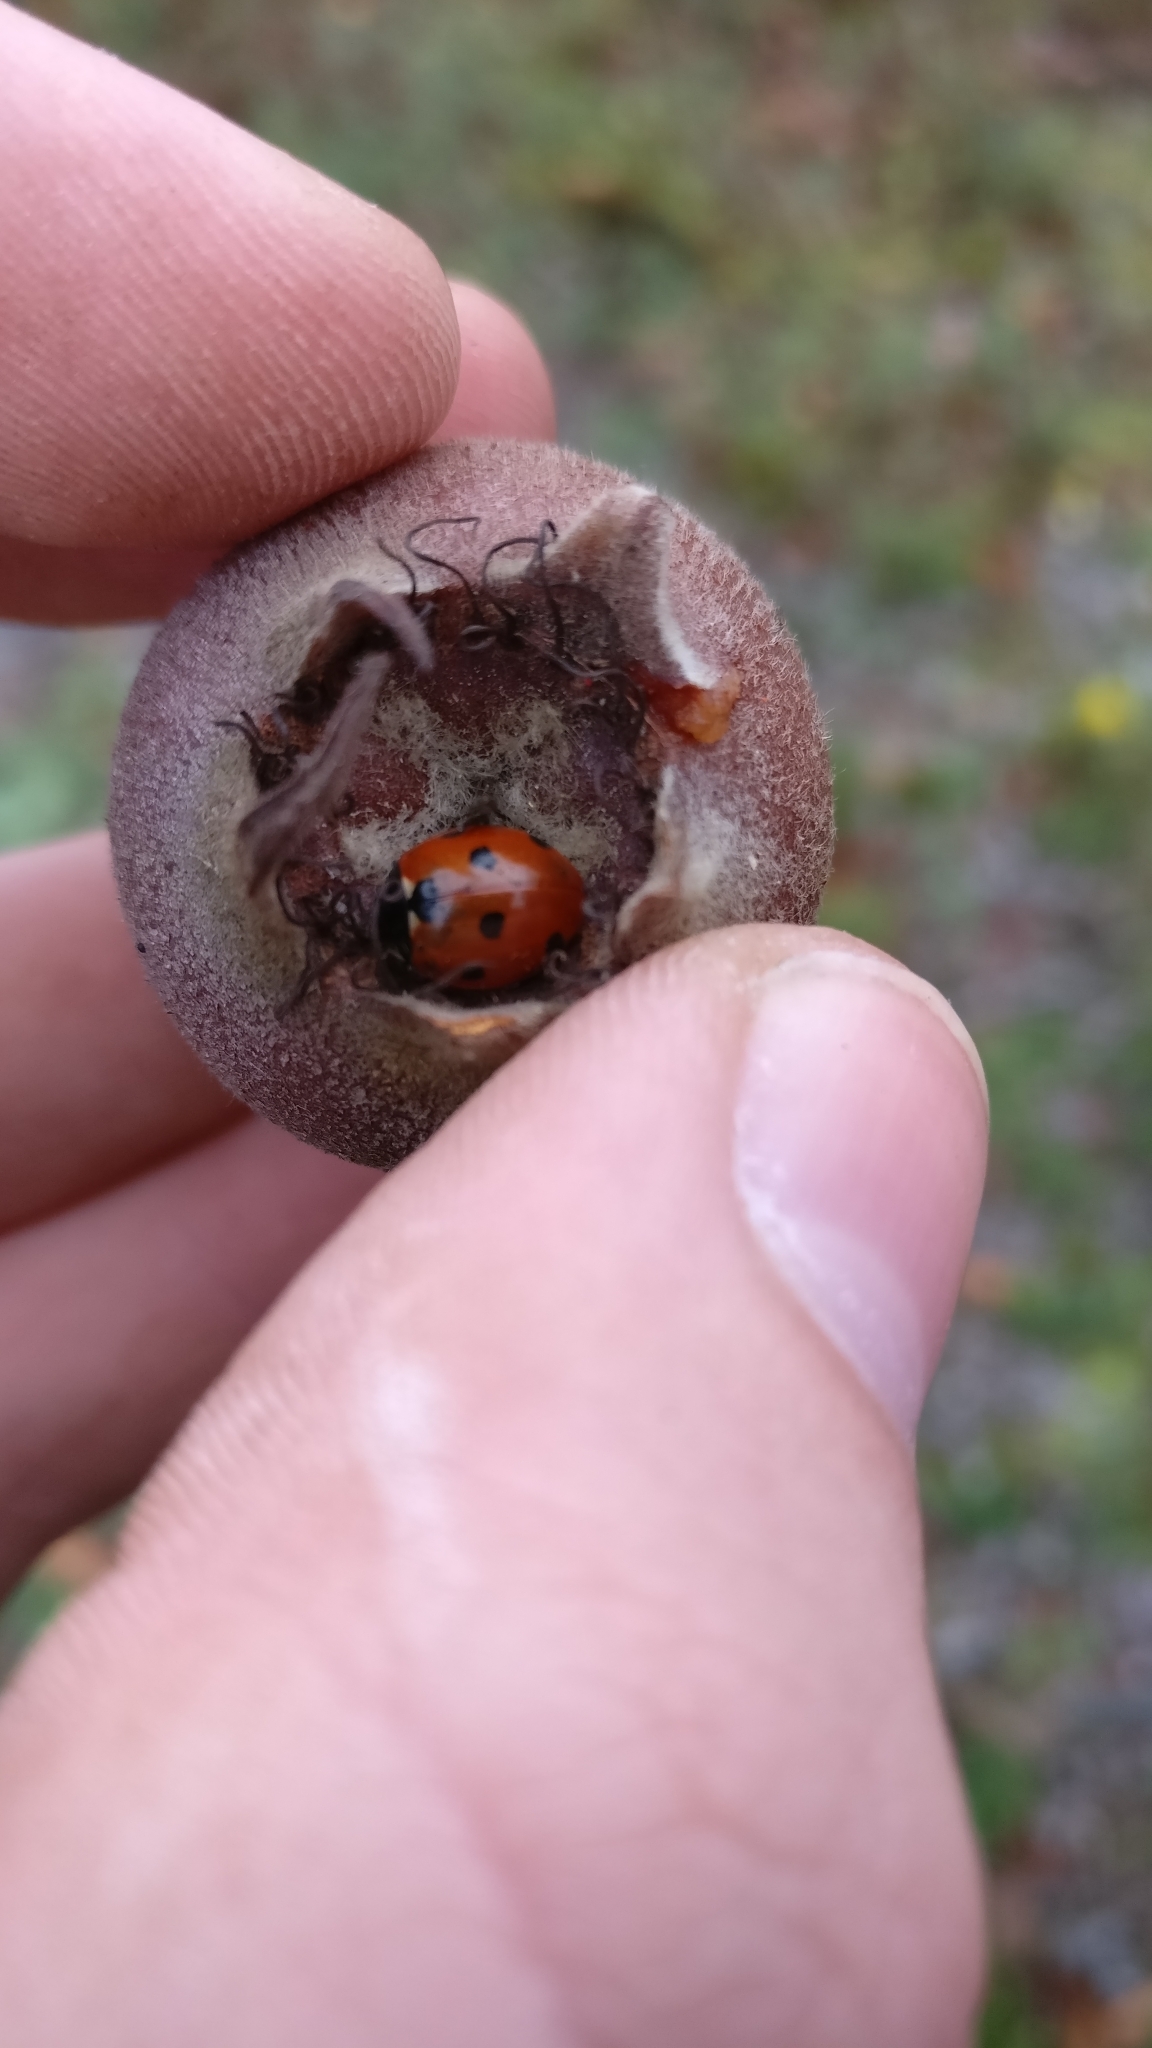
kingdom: Animalia
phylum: Arthropoda
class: Insecta
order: Coleoptera
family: Coccinellidae
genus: Coccinella
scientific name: Coccinella septempunctata
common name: Sevenspotted lady beetle
